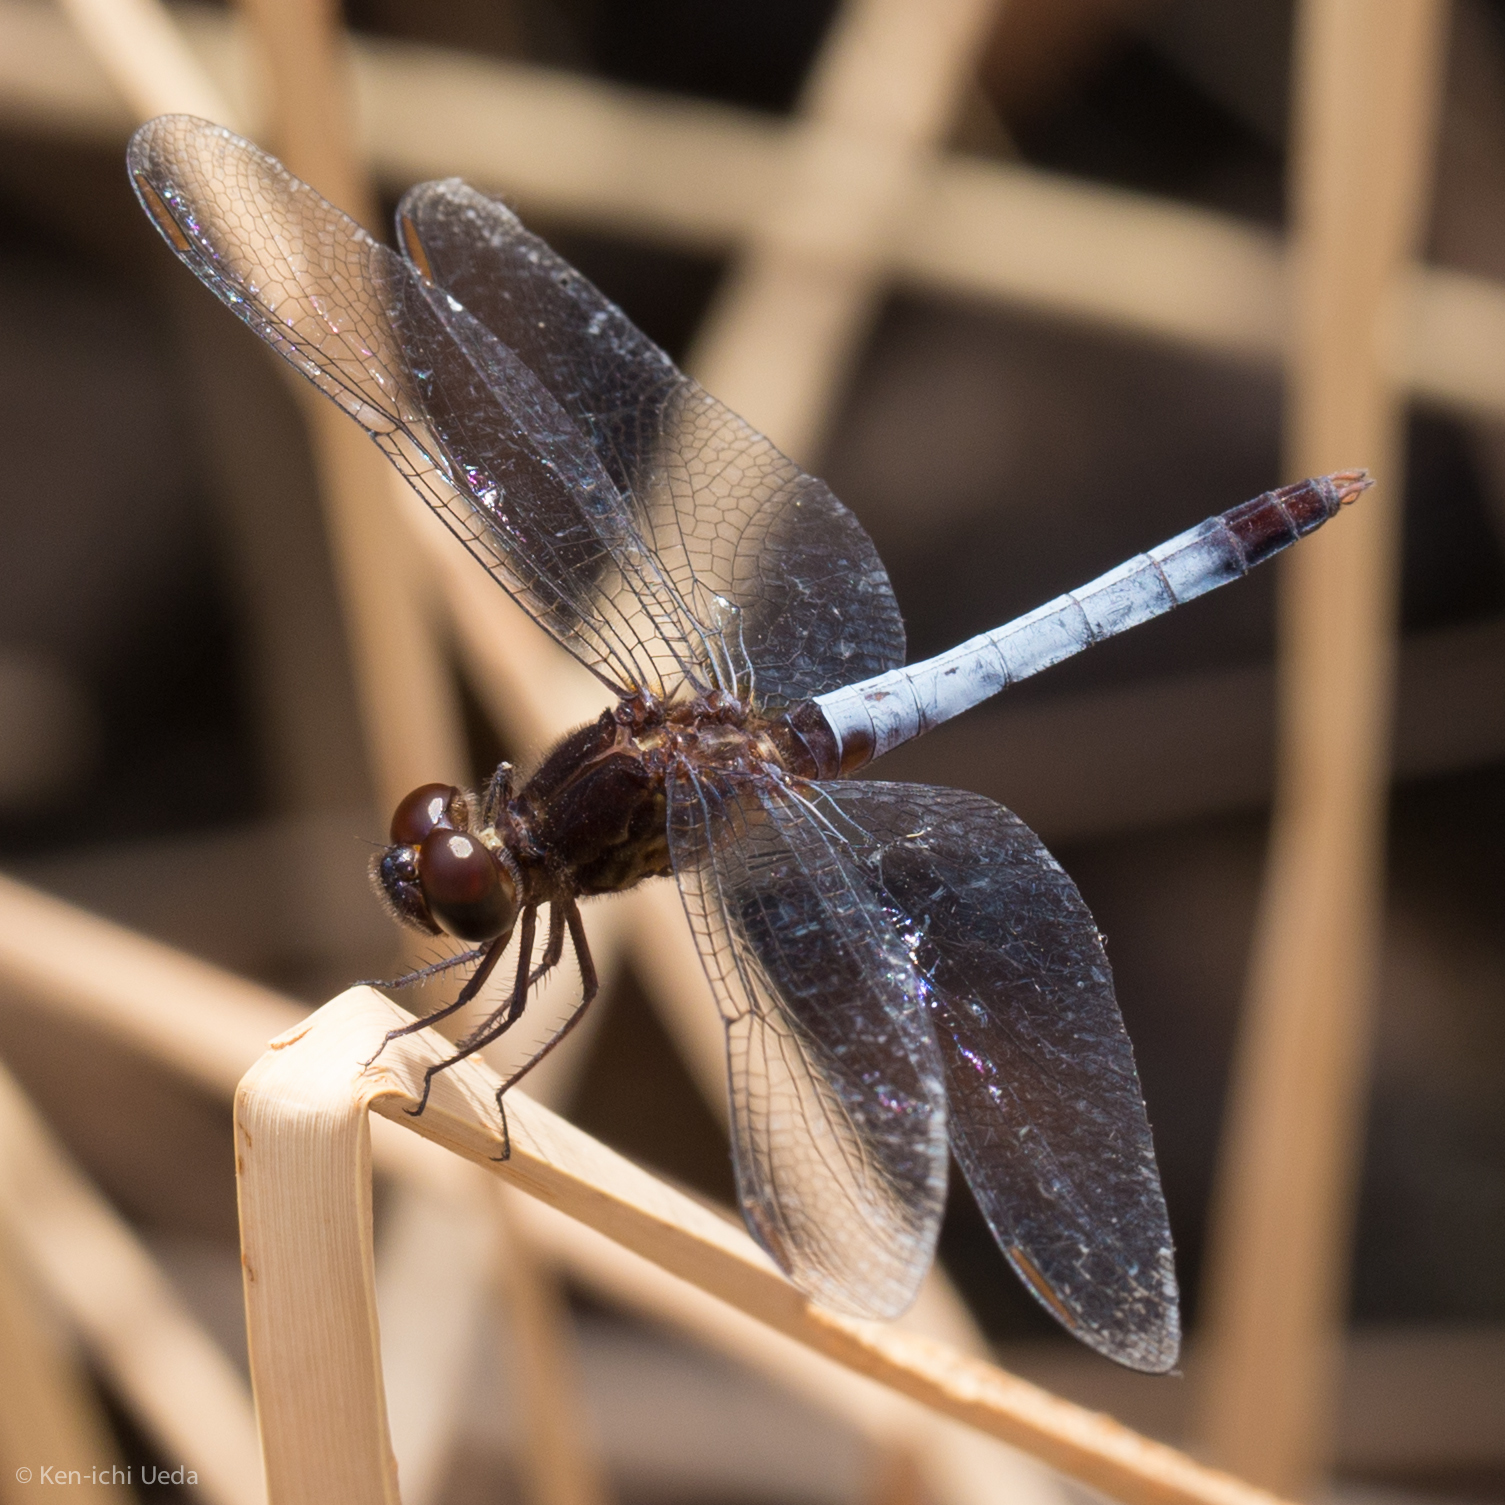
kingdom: Animalia
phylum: Arthropoda
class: Insecta
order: Odonata
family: Libellulidae
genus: Erythrodiplax
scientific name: Erythrodiplax basifusca
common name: Plateau dragonlet
